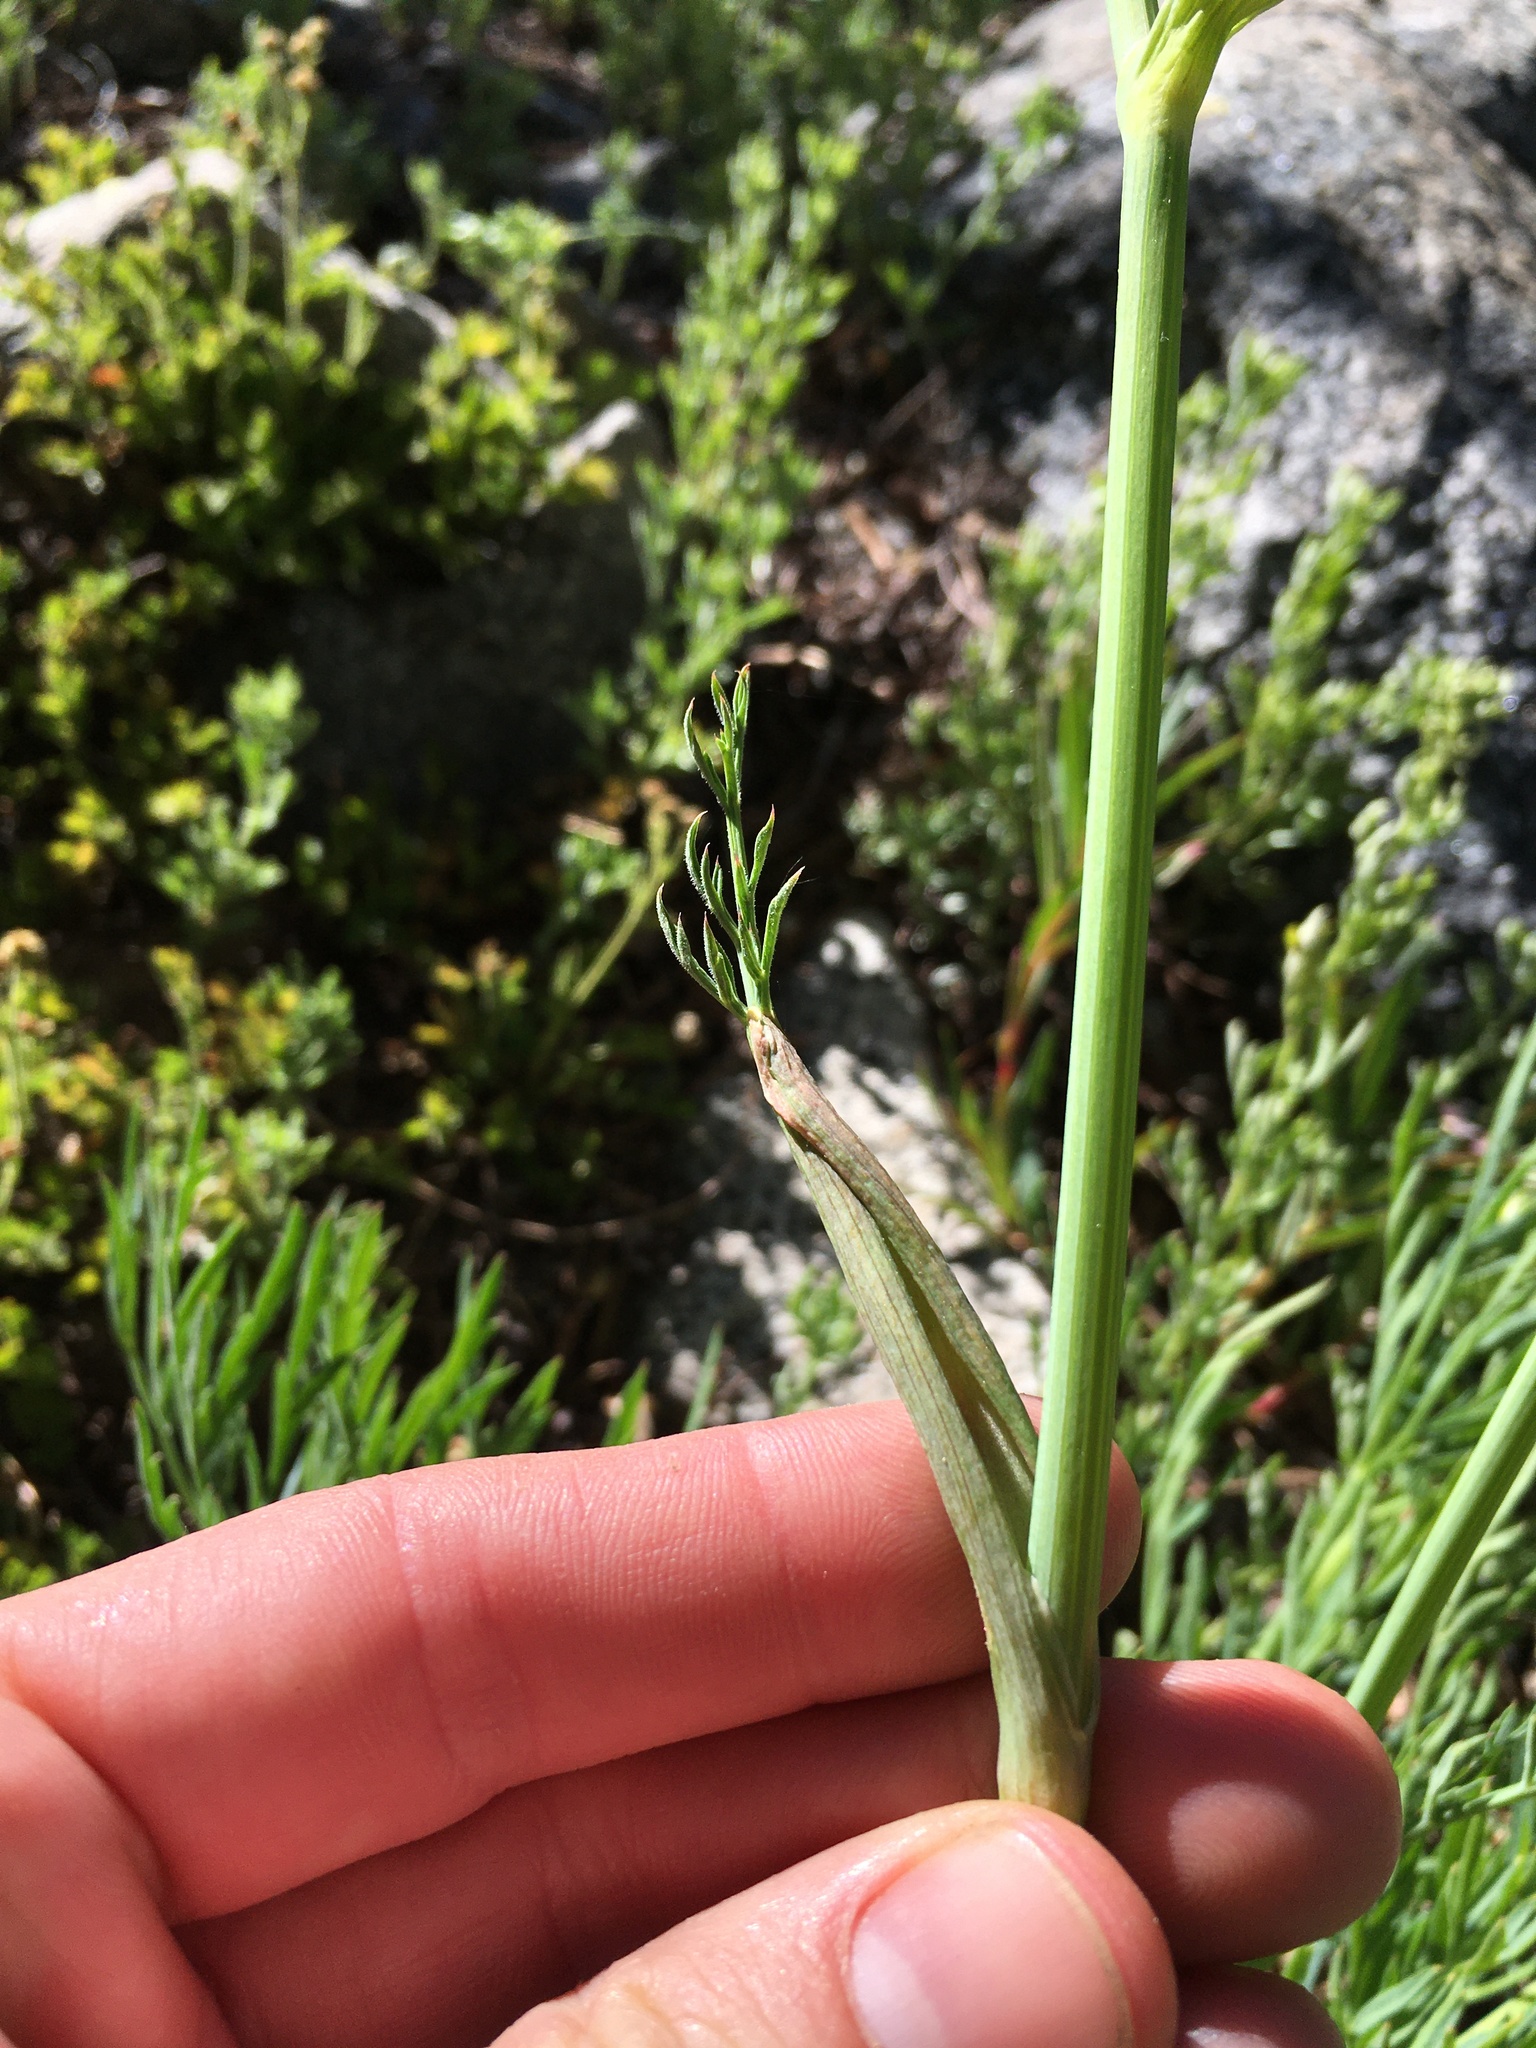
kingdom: Plantae
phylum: Tracheophyta
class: Magnoliopsida
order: Apiales
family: Apiaceae
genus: Angelica
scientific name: Angelica capitellata
